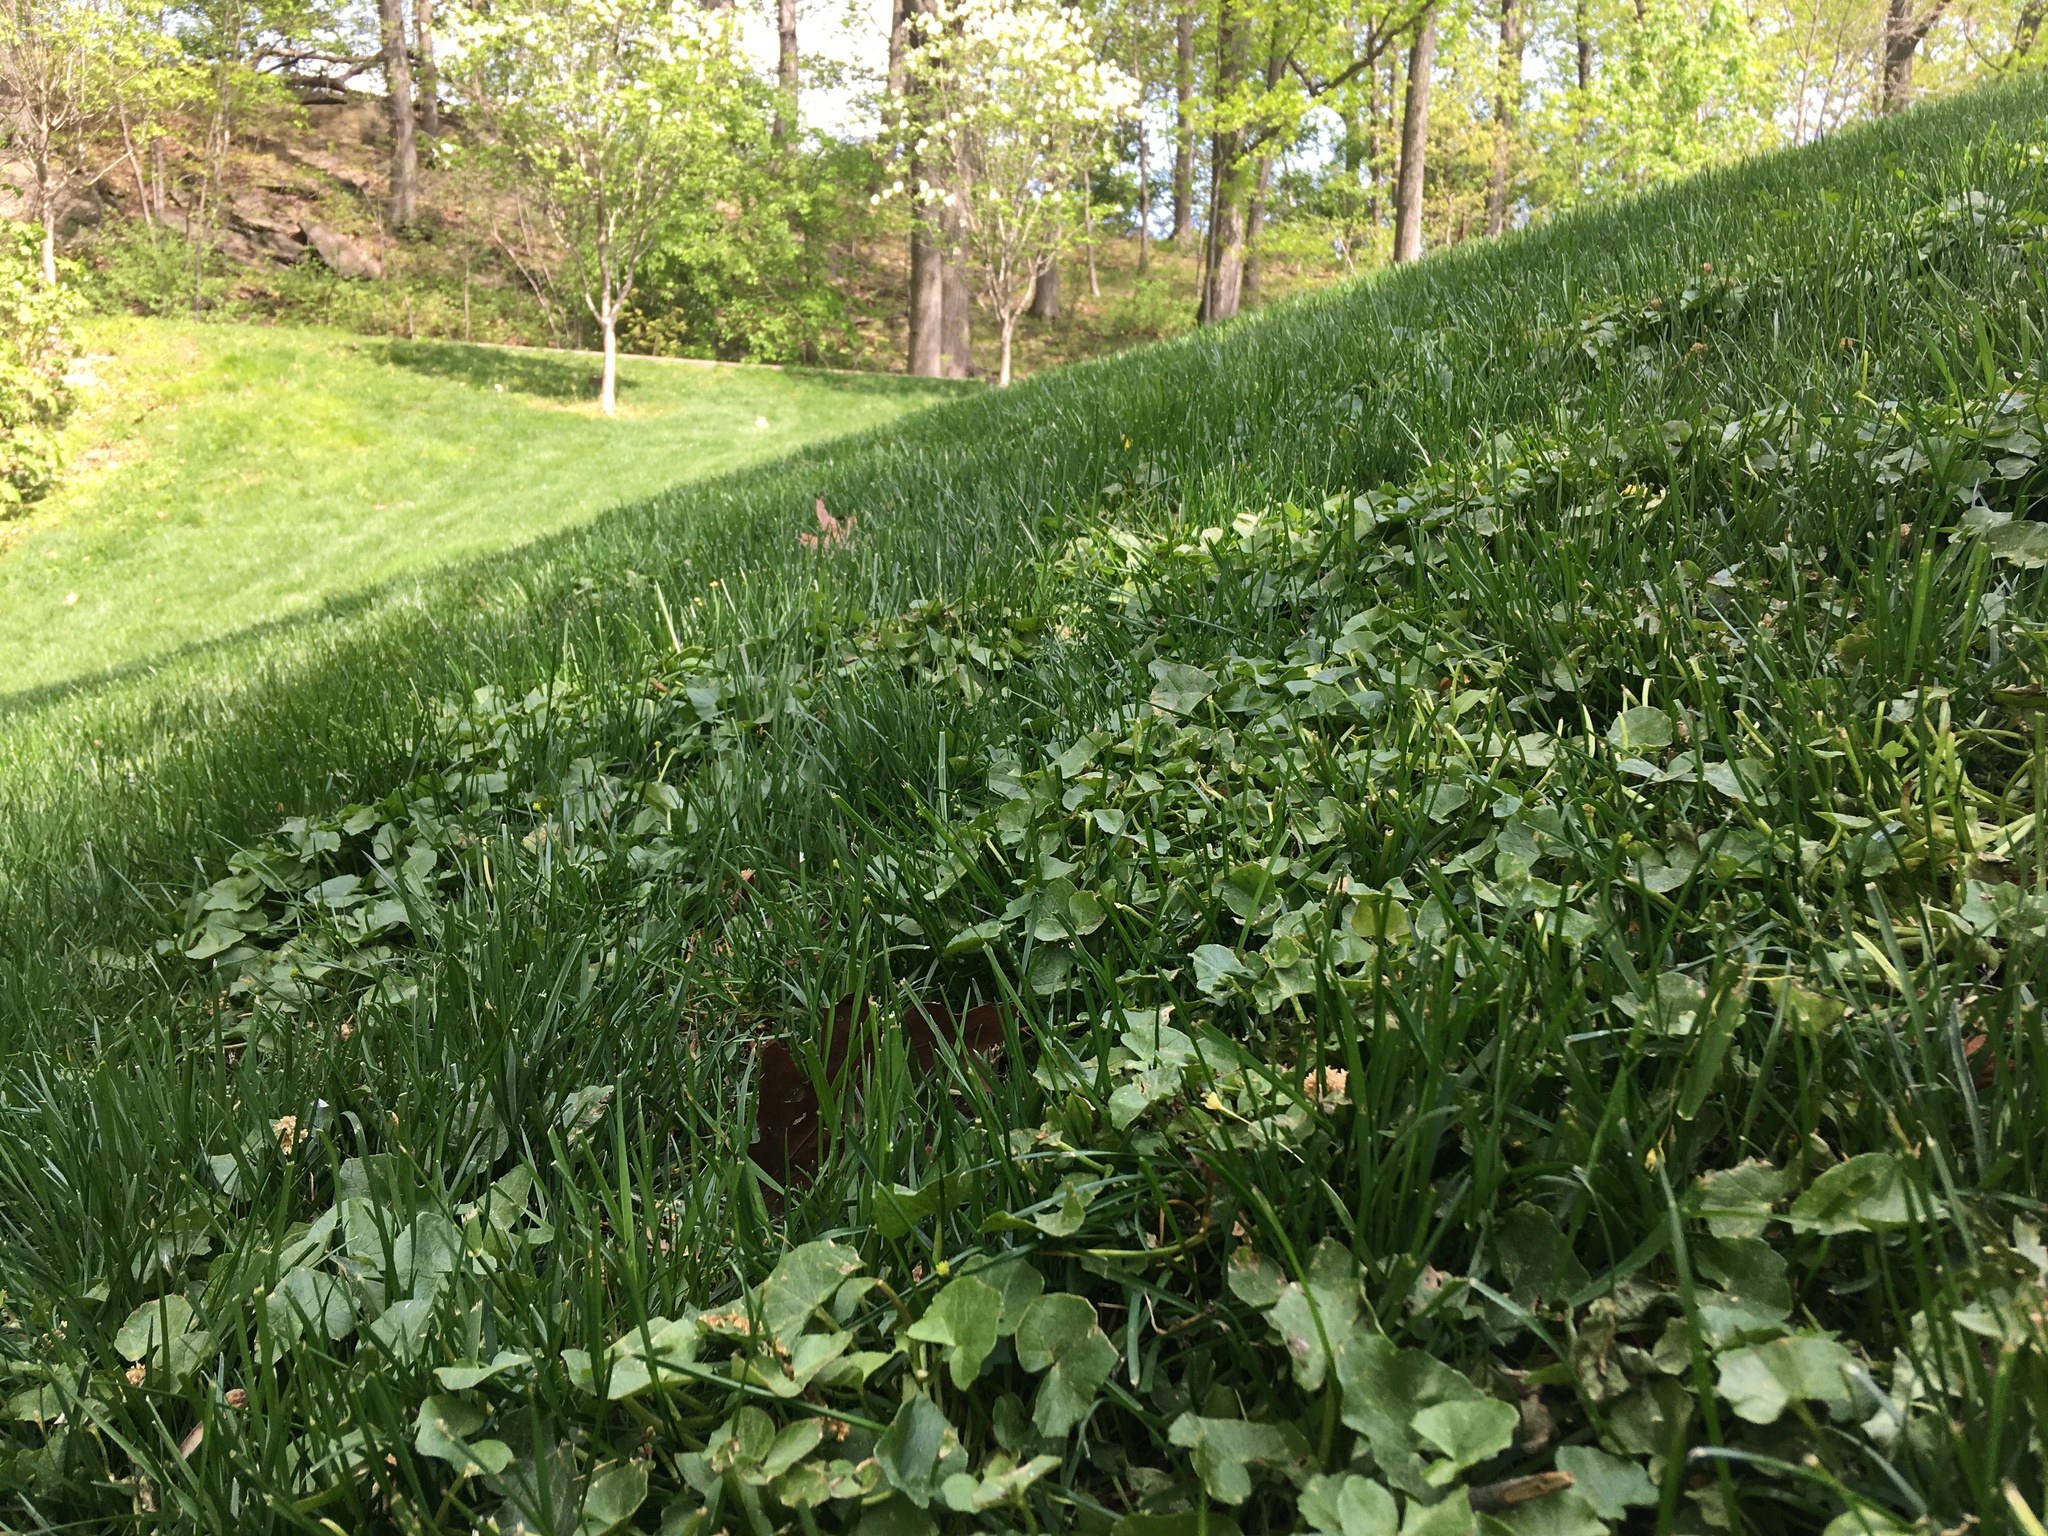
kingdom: Plantae
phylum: Tracheophyta
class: Magnoliopsida
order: Ranunculales
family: Ranunculaceae
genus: Ficaria
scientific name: Ficaria verna
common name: Lesser celandine
